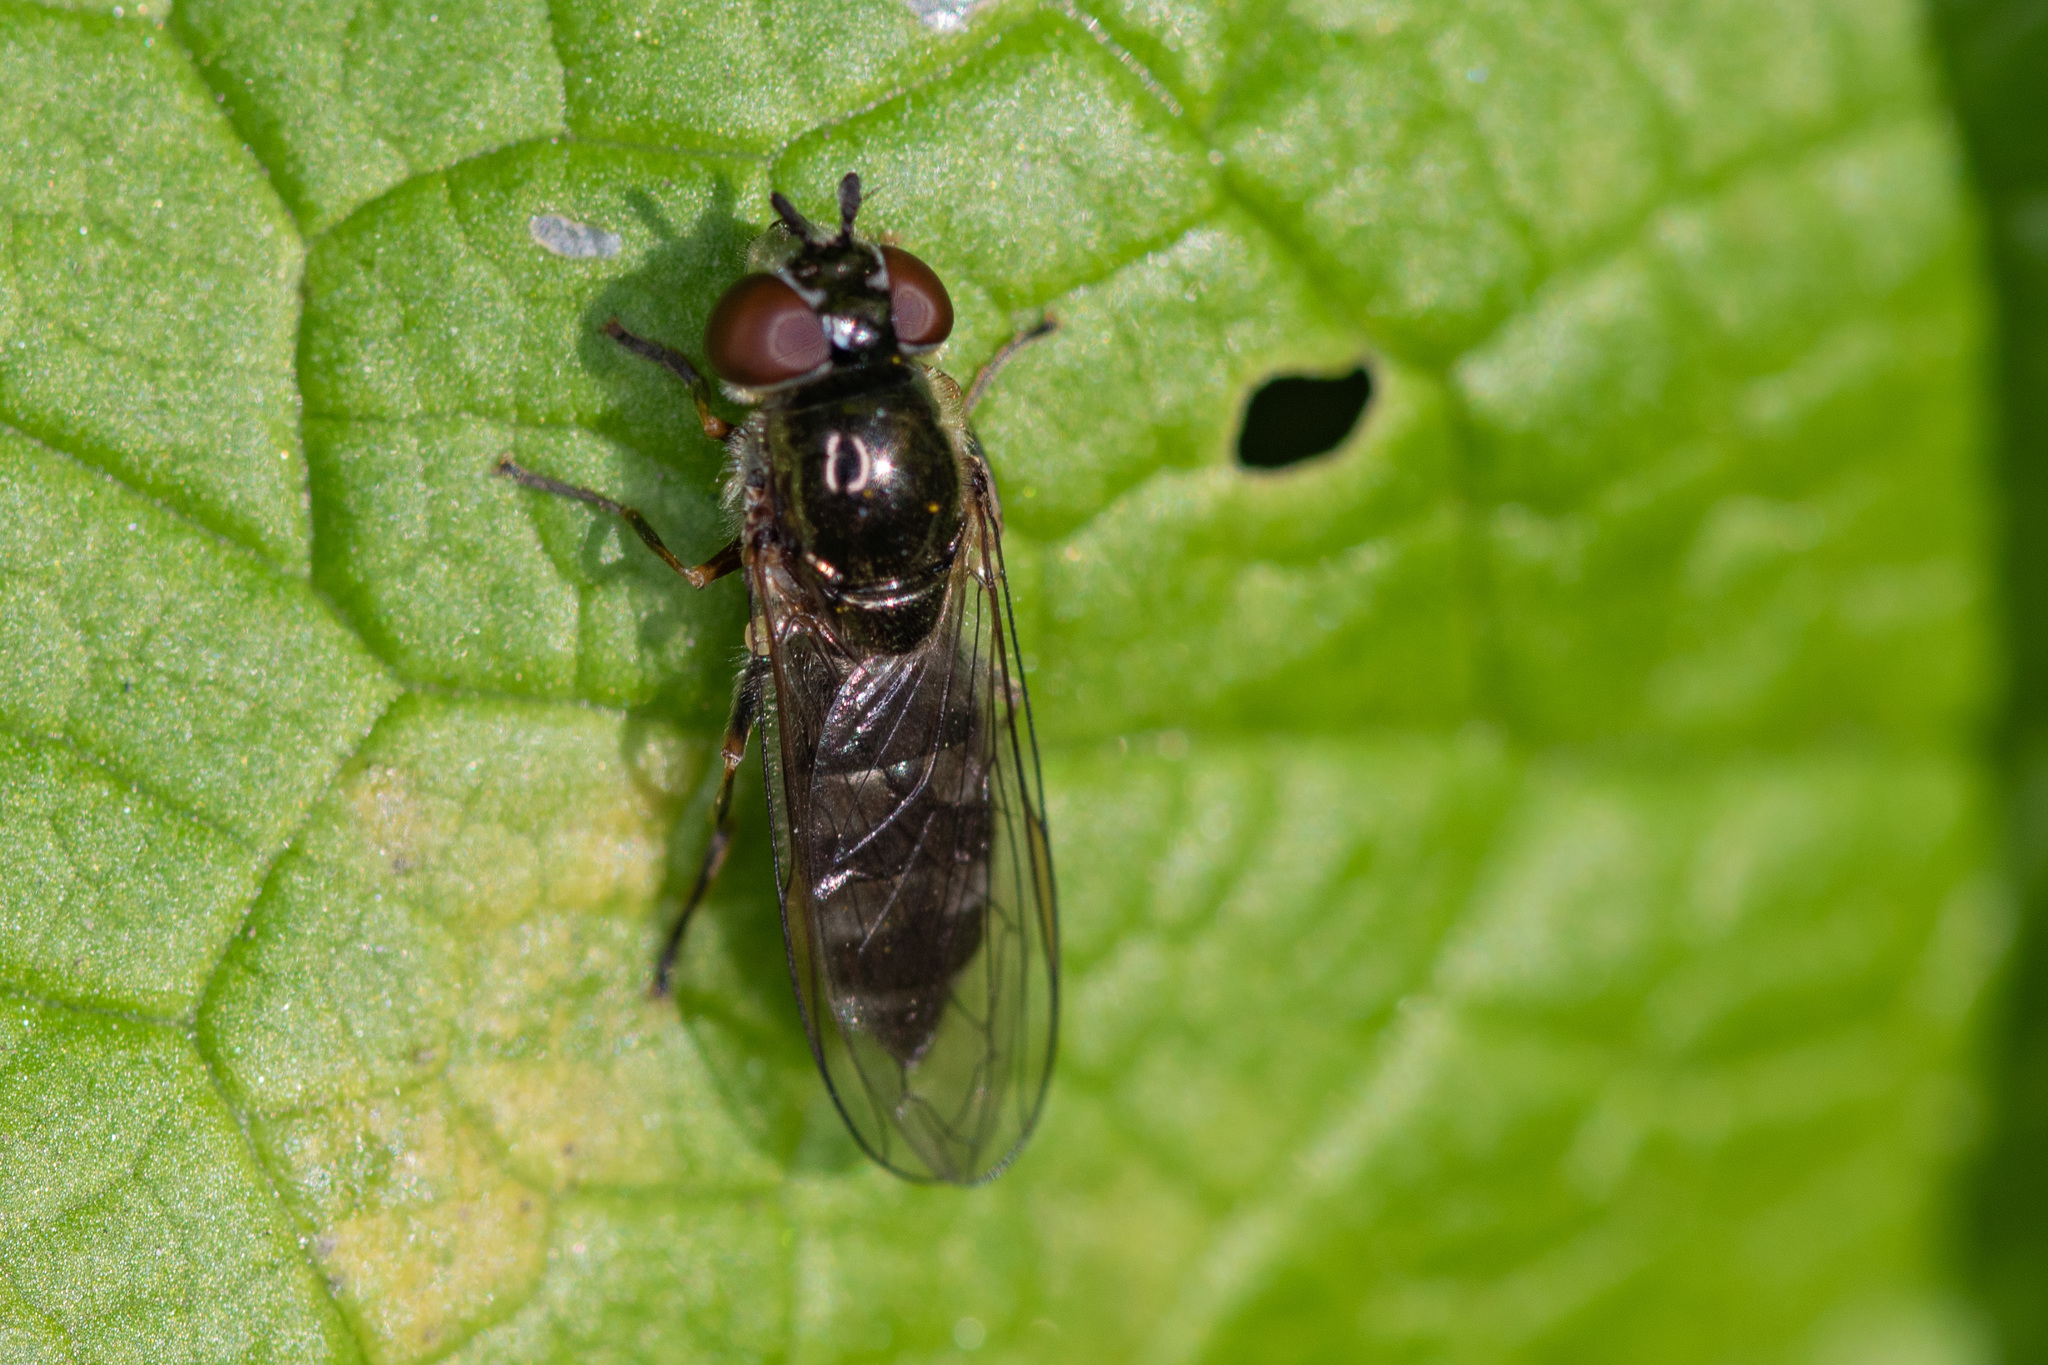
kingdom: Animalia
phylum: Arthropoda
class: Insecta
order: Diptera
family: Syrphidae
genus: Platycheirus
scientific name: Platycheirus albimanus
